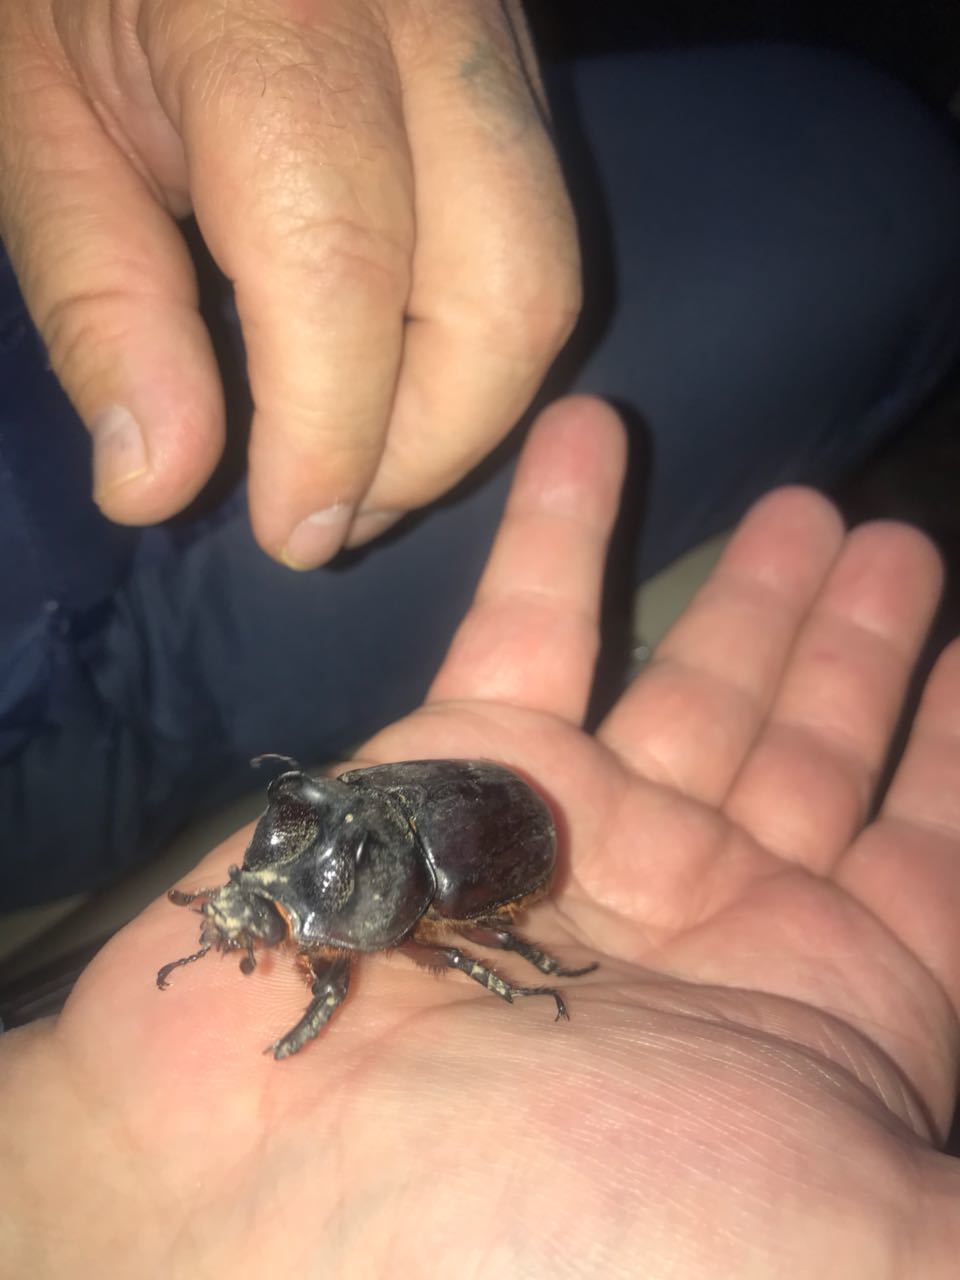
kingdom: Animalia
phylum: Arthropoda
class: Insecta
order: Coleoptera
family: Scarabaeidae
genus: Strategus
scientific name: Strategus aloeus
